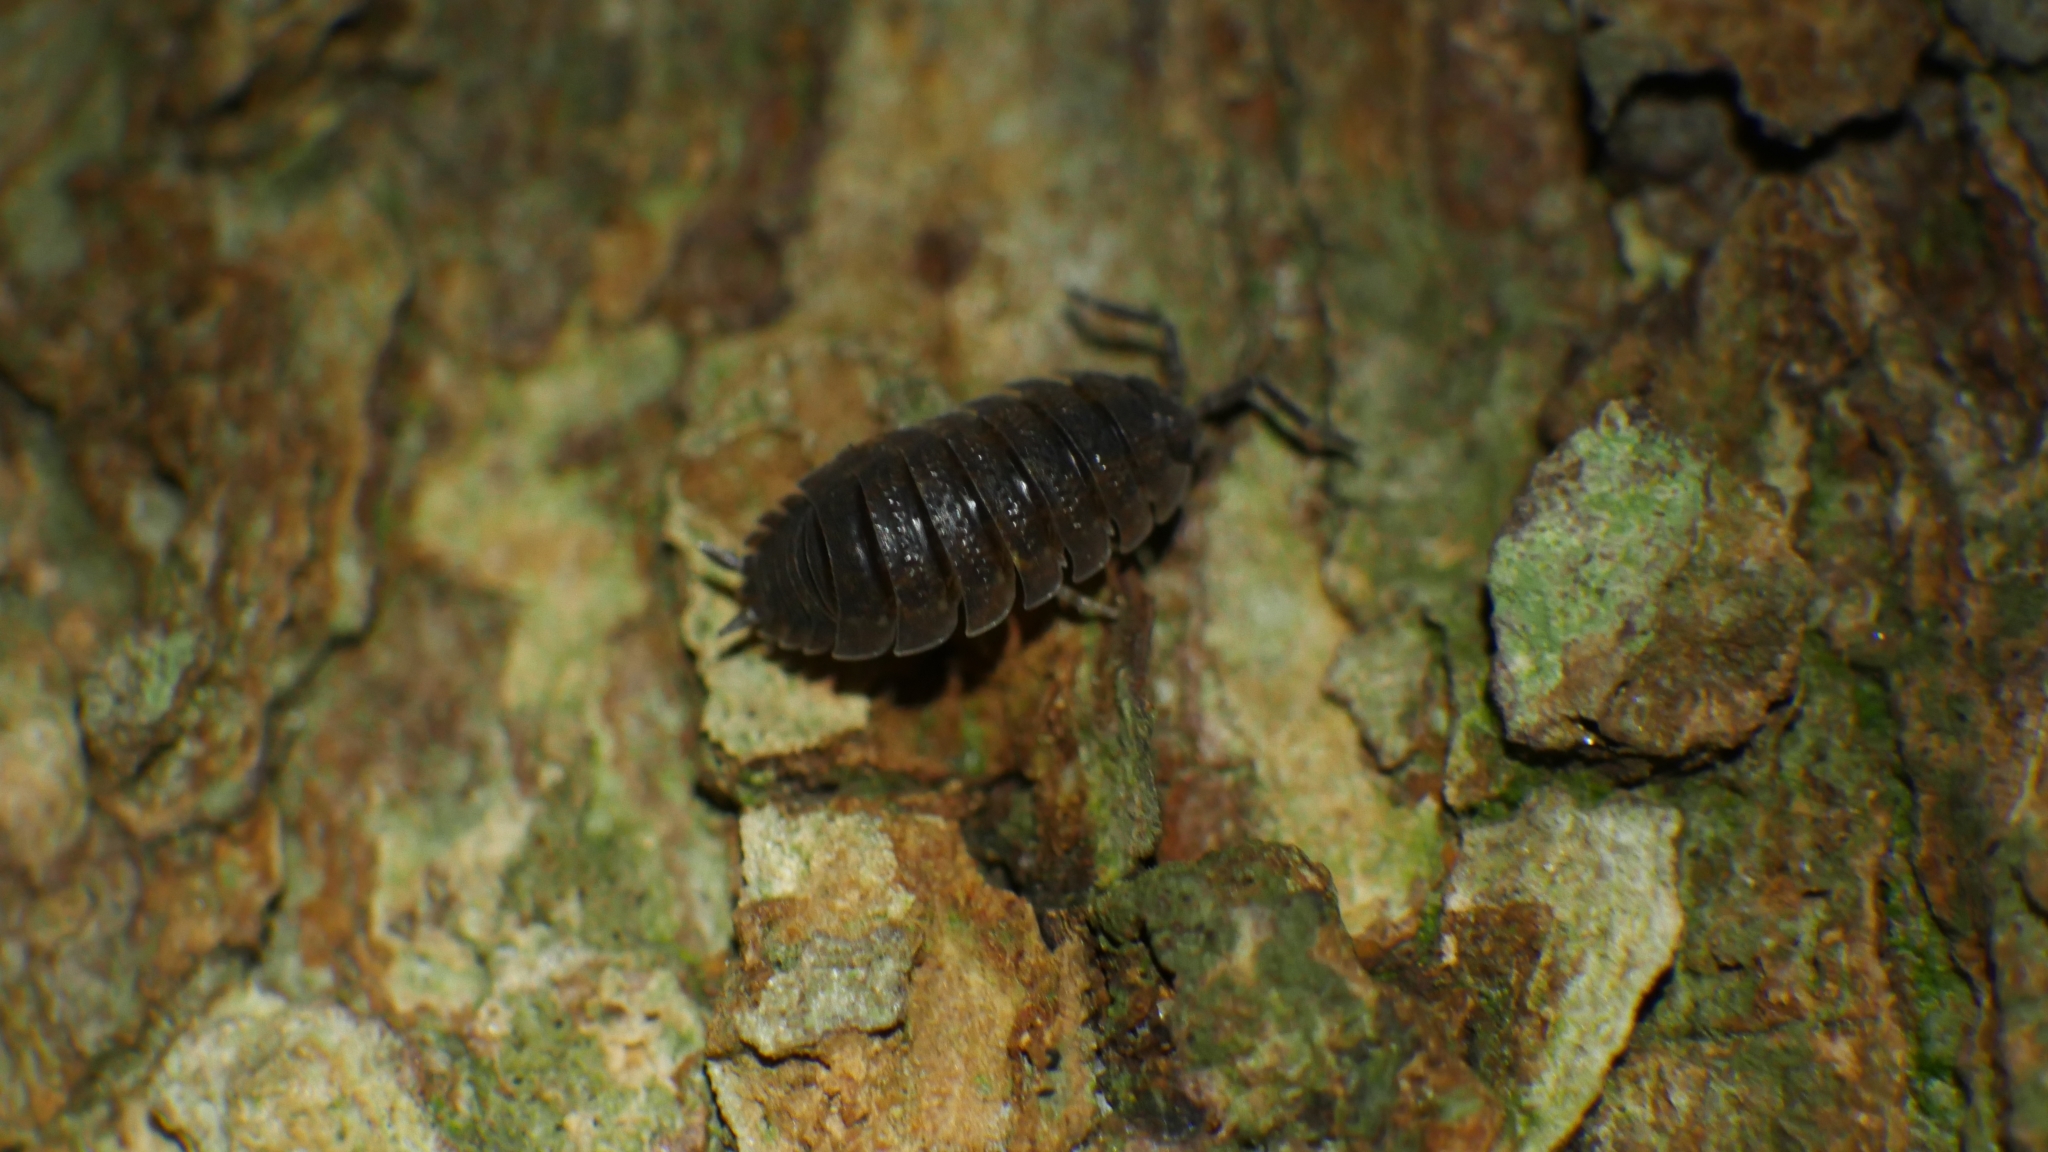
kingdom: Animalia
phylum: Arthropoda
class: Malacostraca
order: Isopoda
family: Porcellionidae
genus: Porcellio
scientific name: Porcellio scaber
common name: Common rough woodlouse
